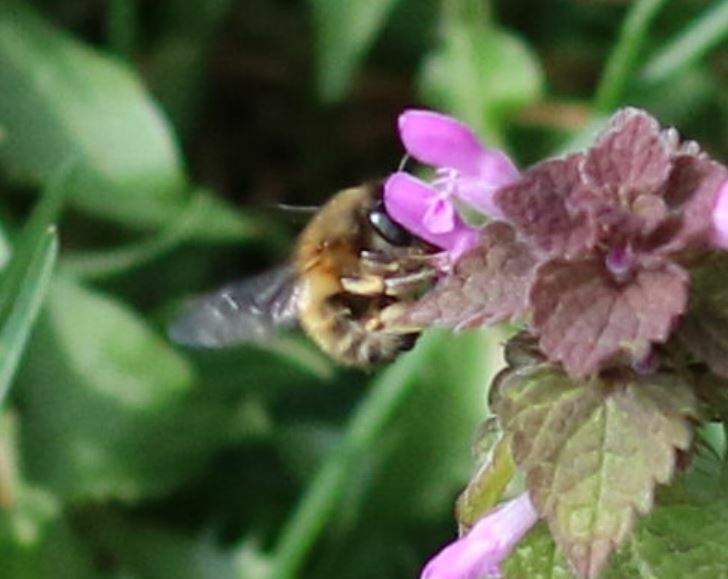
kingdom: Animalia
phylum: Arthropoda
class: Insecta
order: Hymenoptera
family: Apidae
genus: Anthophora
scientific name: Anthophora plumipes
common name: Hairy-footed flower bee
